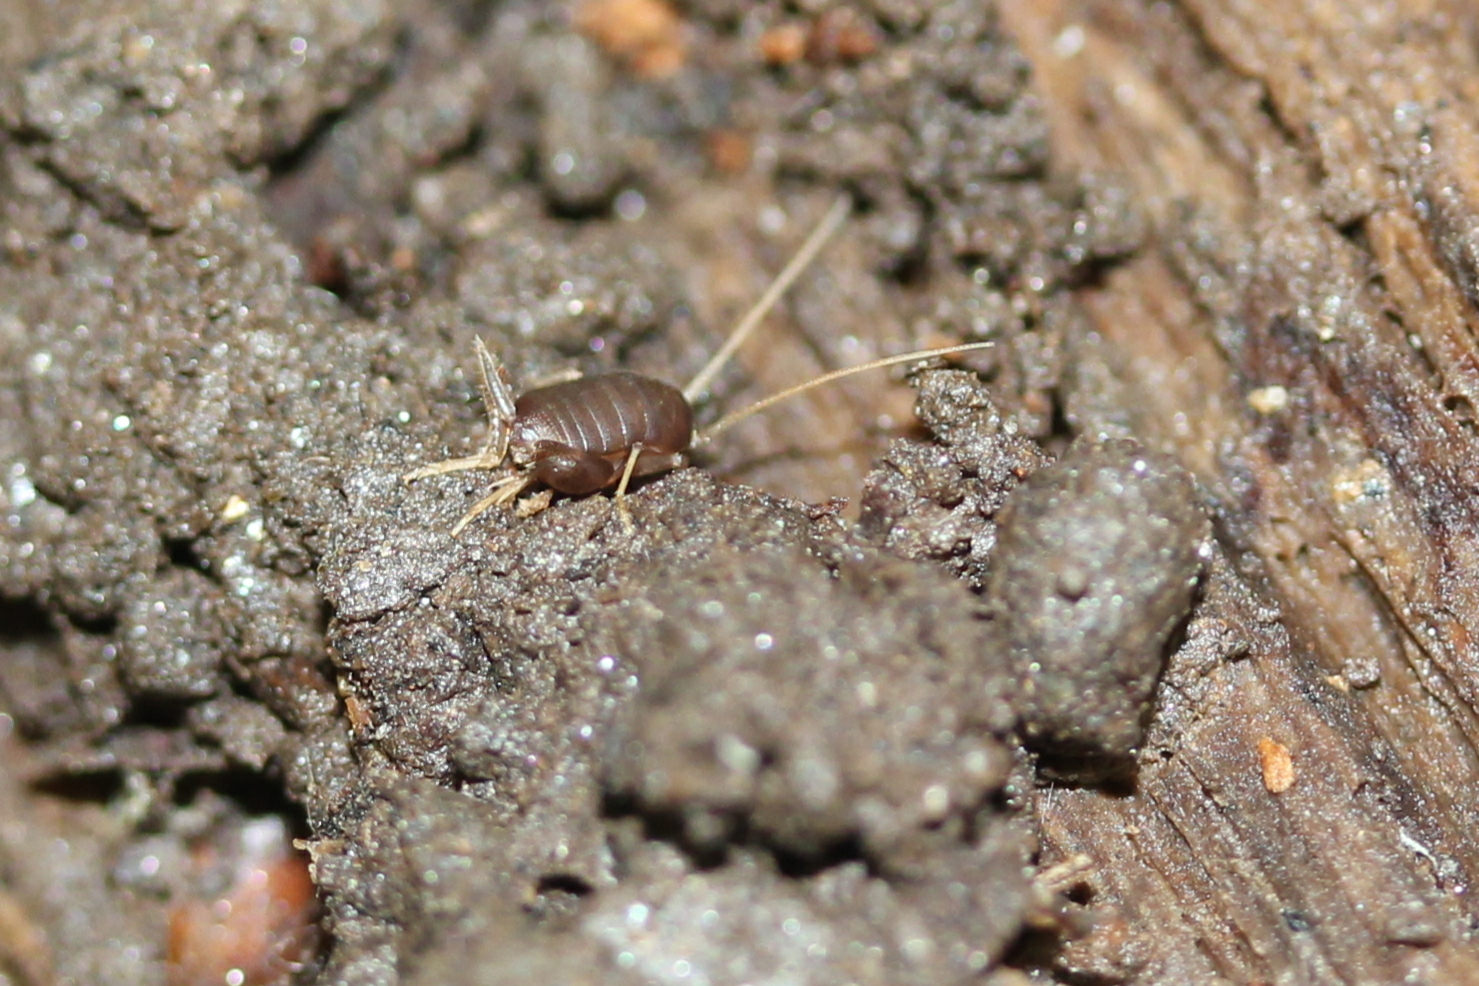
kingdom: Animalia
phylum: Arthropoda
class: Insecta
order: Orthoptera
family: Myrmecophilidae
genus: Myrmecophilus
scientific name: Myrmecophilus pergandei
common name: Eastern ant cricket
